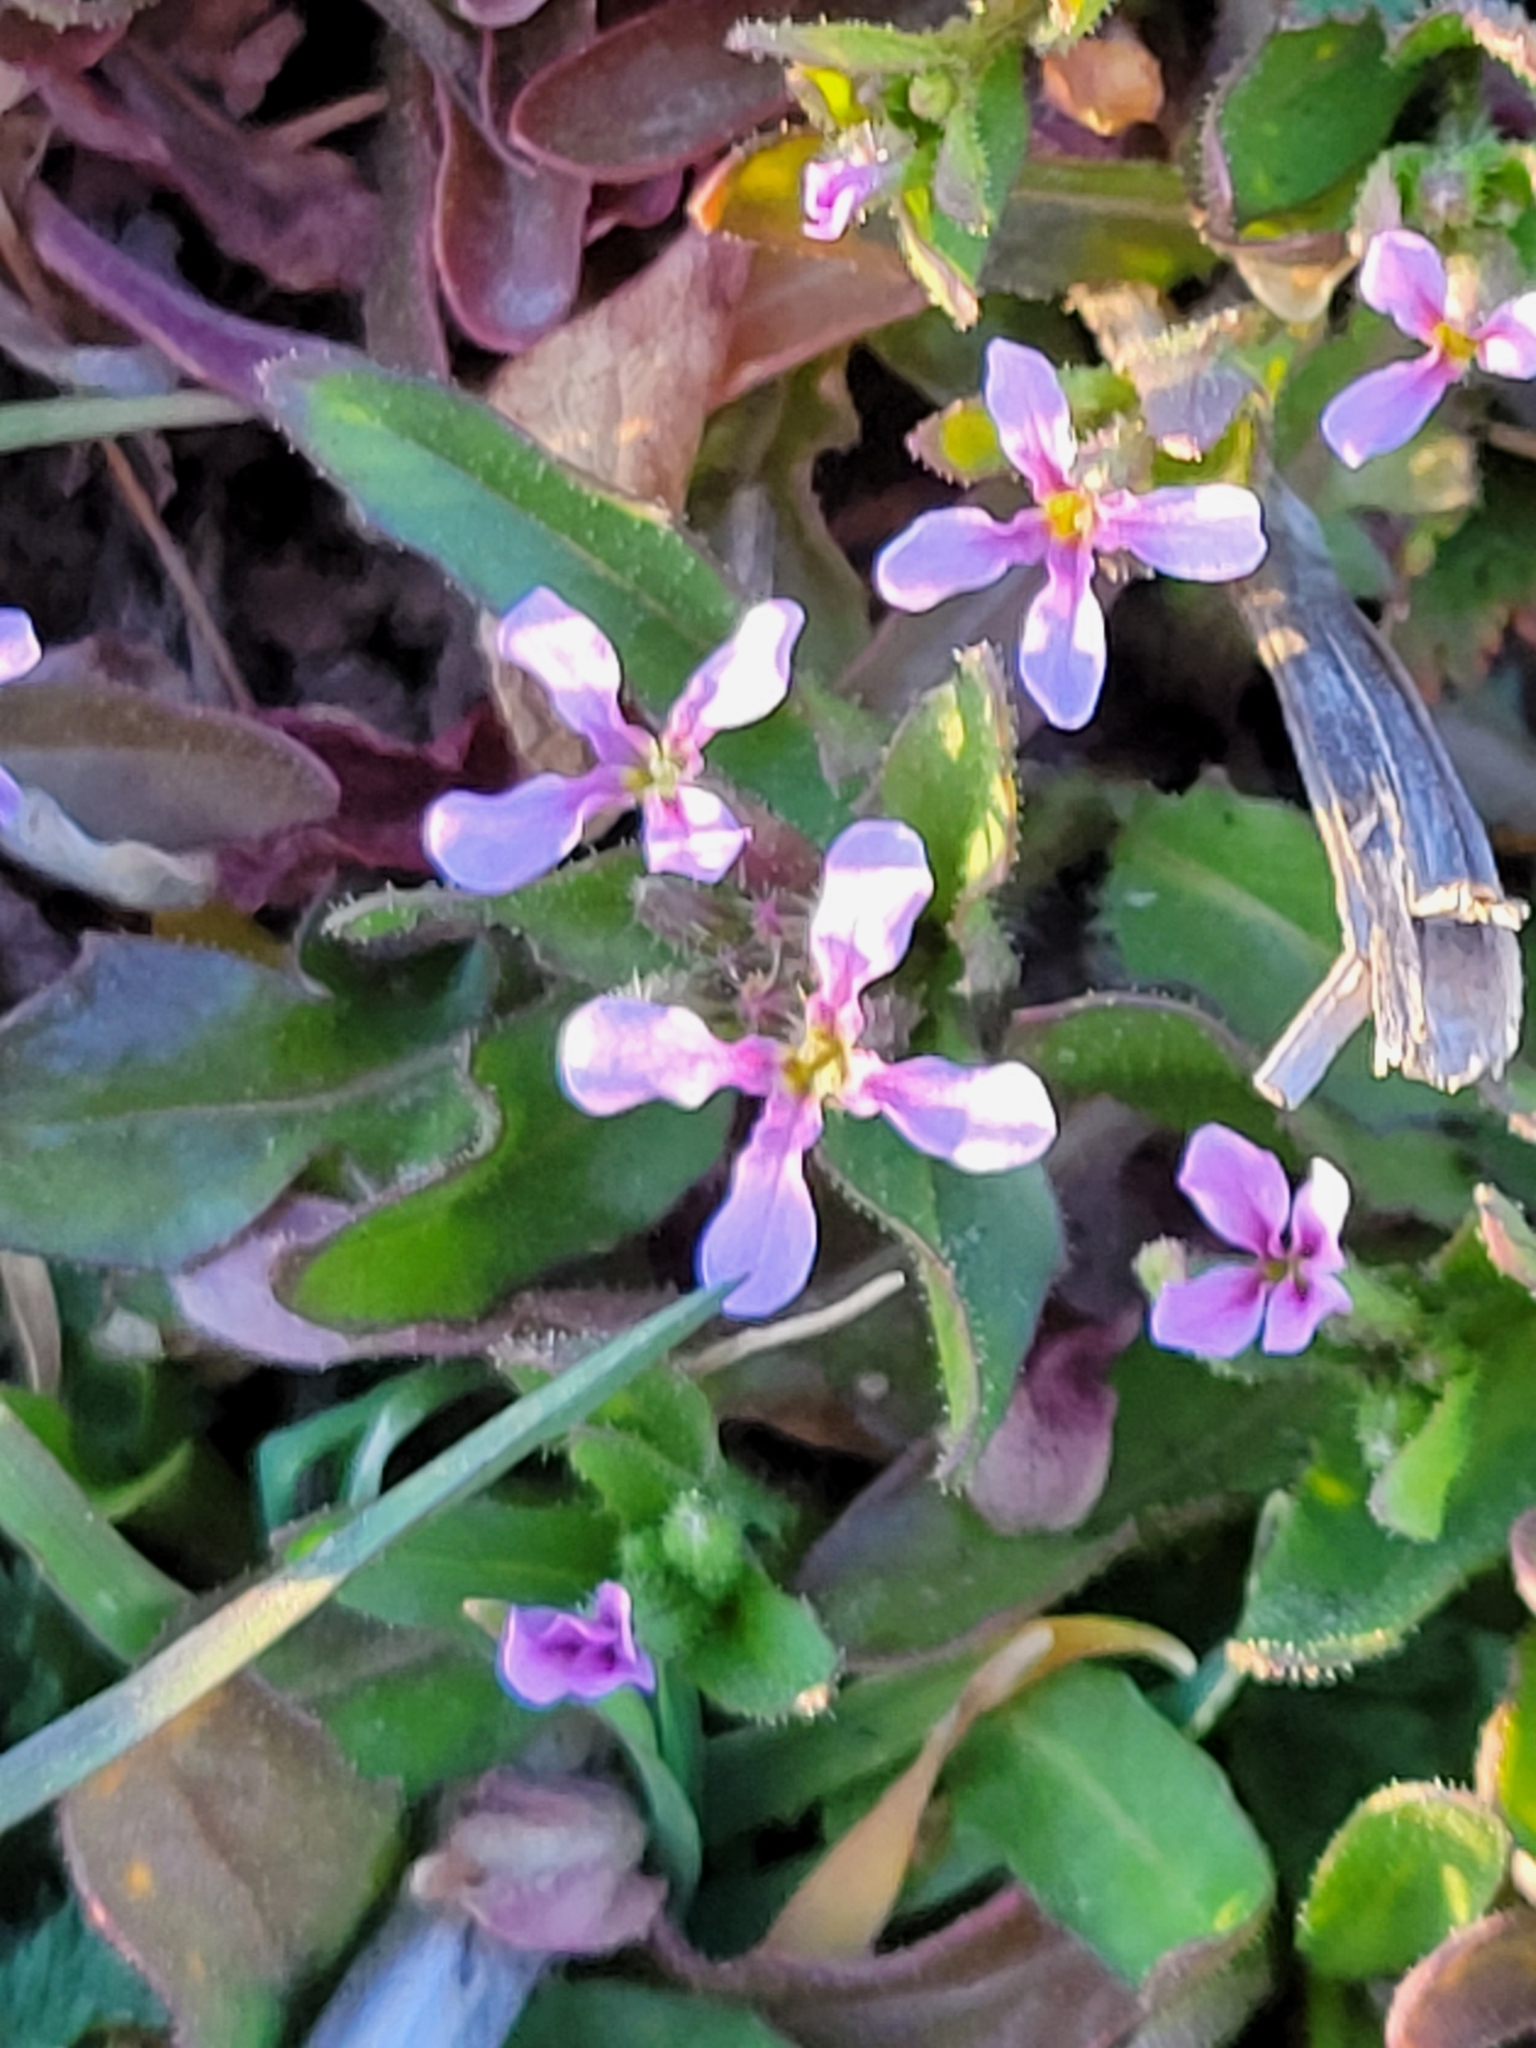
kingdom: Plantae
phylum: Tracheophyta
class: Magnoliopsida
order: Brassicales
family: Brassicaceae
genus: Chorispora
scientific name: Chorispora tenella
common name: Crossflower
